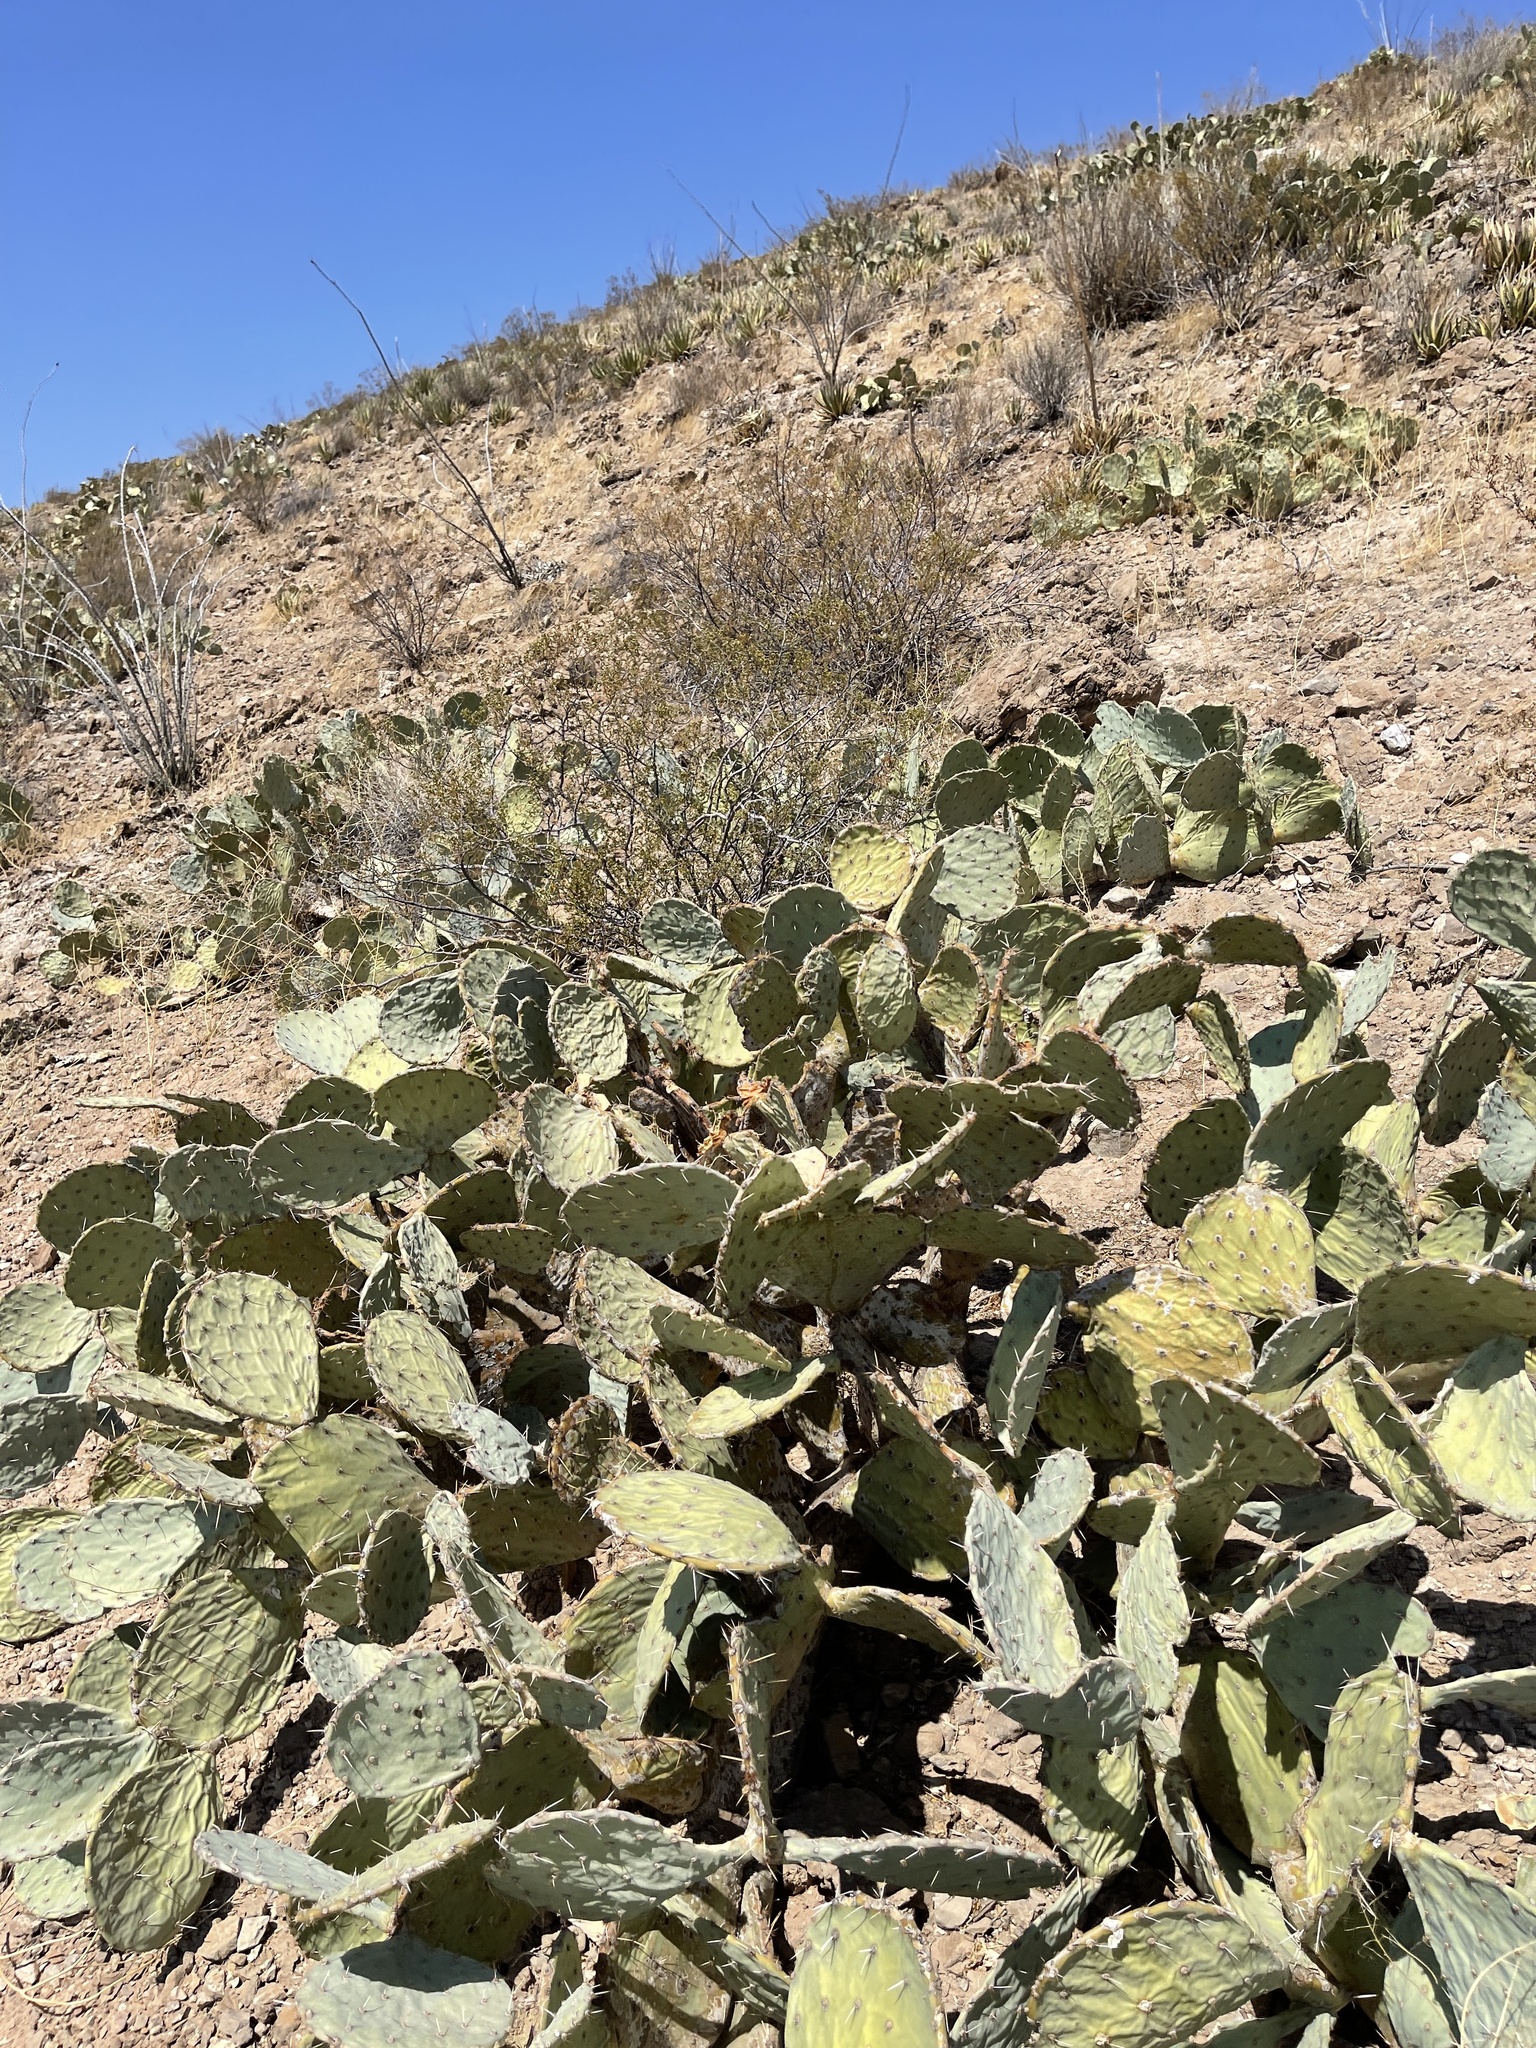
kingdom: Plantae
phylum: Tracheophyta
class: Magnoliopsida
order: Caryophyllales
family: Cactaceae
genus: Opuntia
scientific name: Opuntia engelmannii
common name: Cactus-apple
